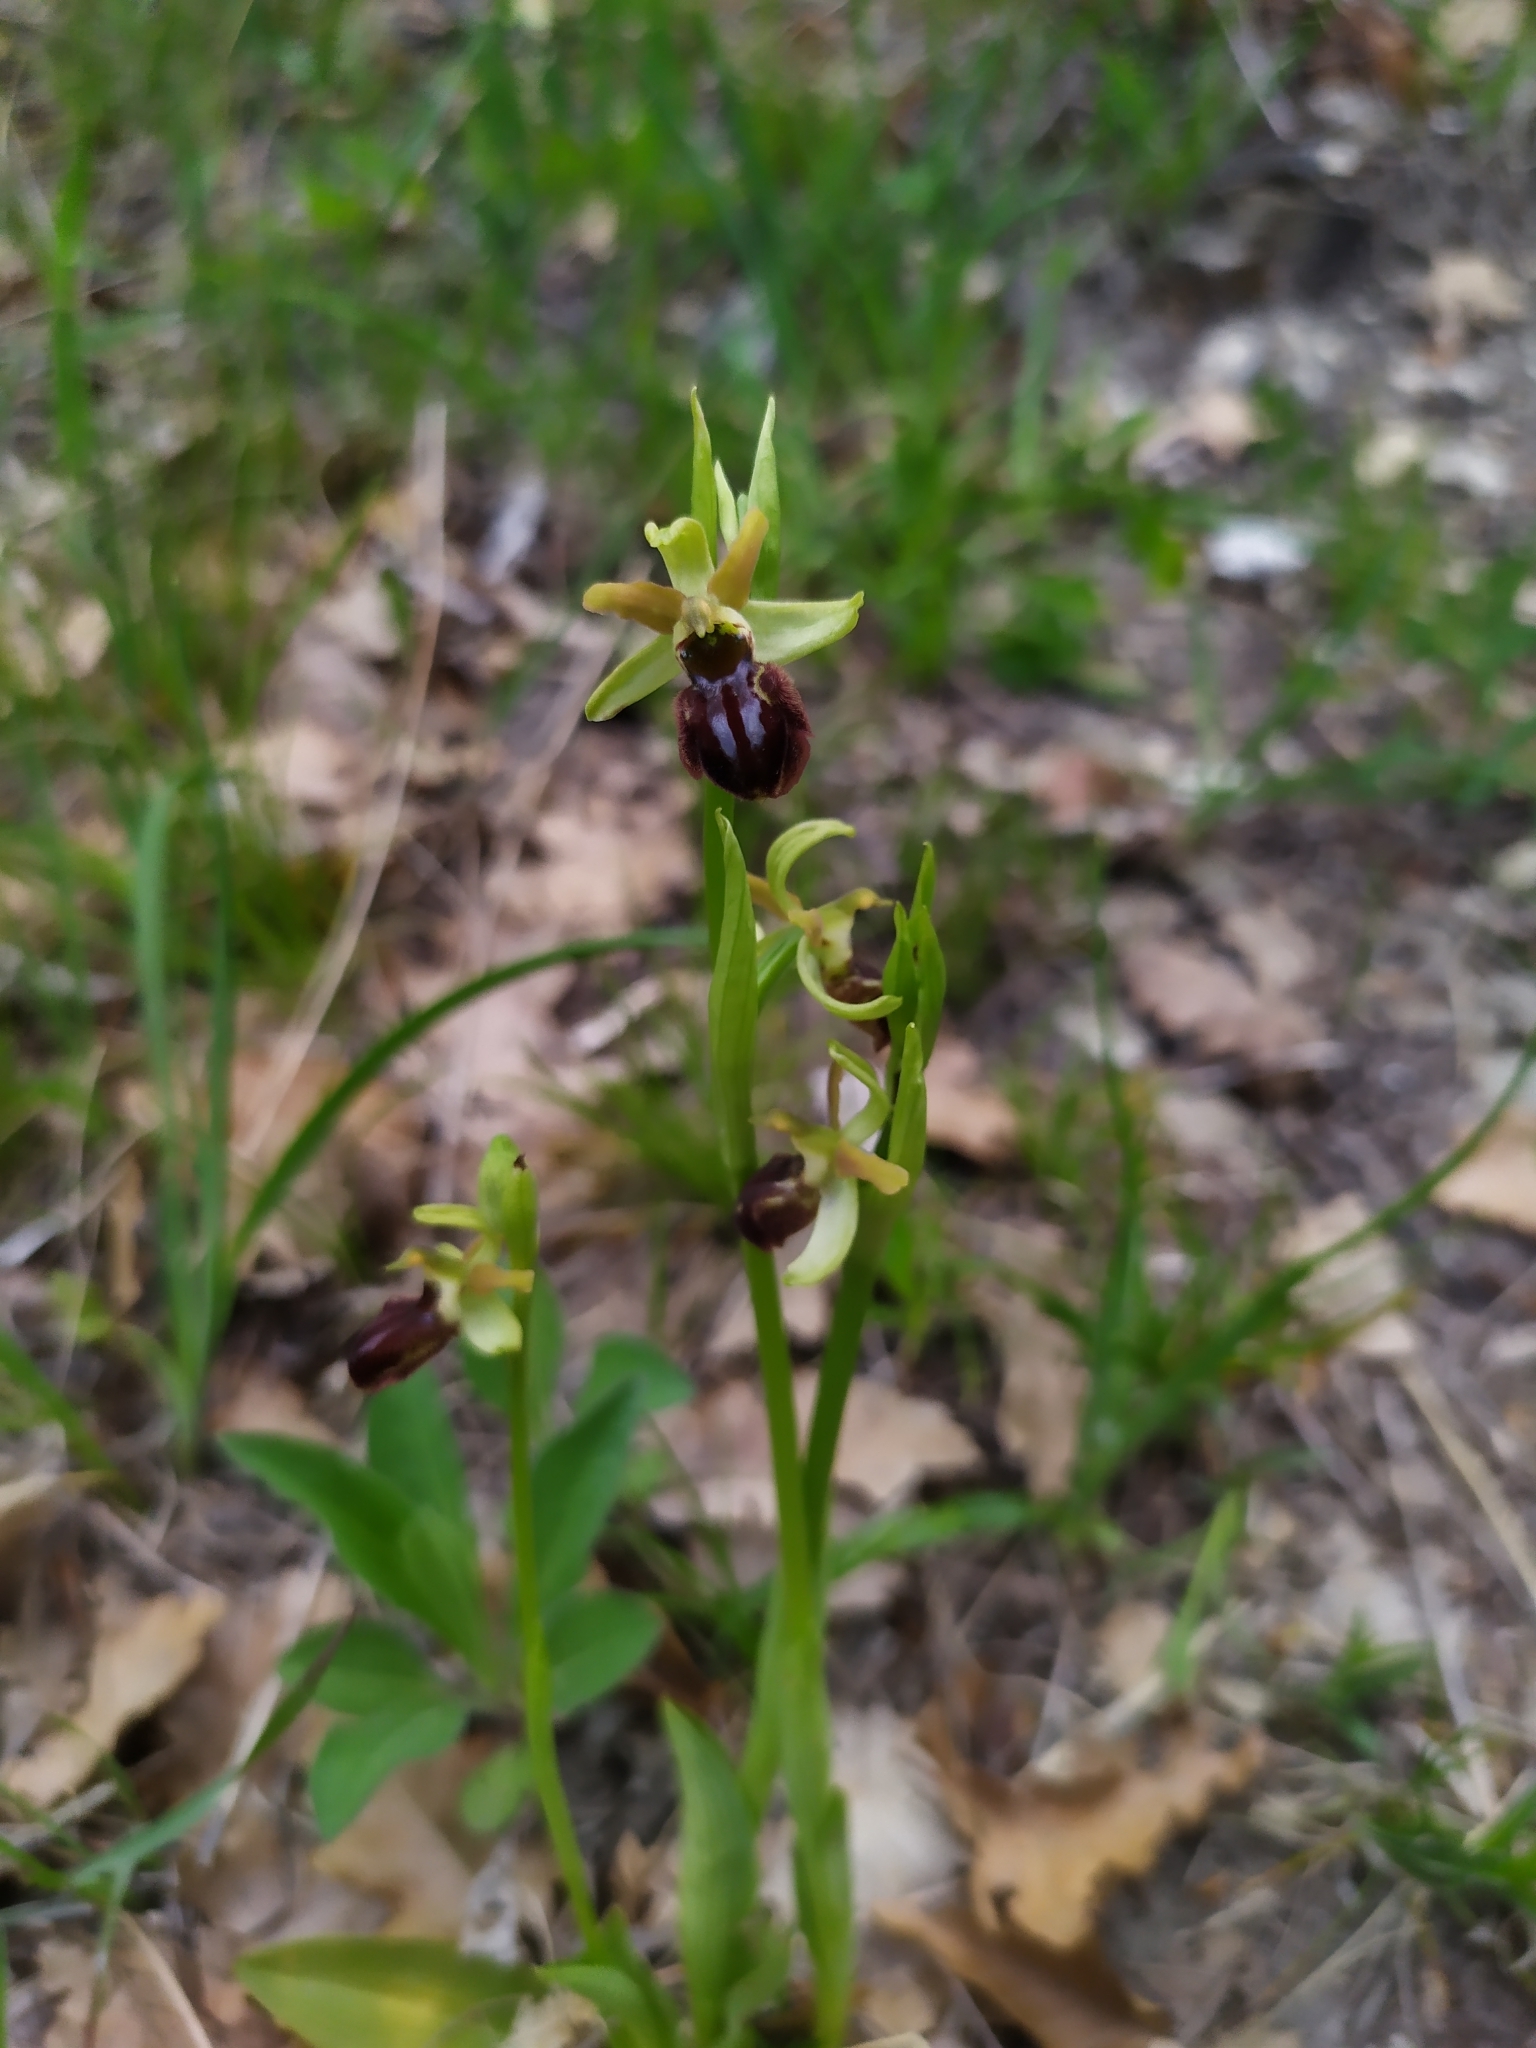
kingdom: Plantae
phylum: Tracheophyta
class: Liliopsida
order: Asparagales
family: Orchidaceae
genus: Ophrys
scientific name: Ophrys sphegodes
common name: Early spider-orchid
